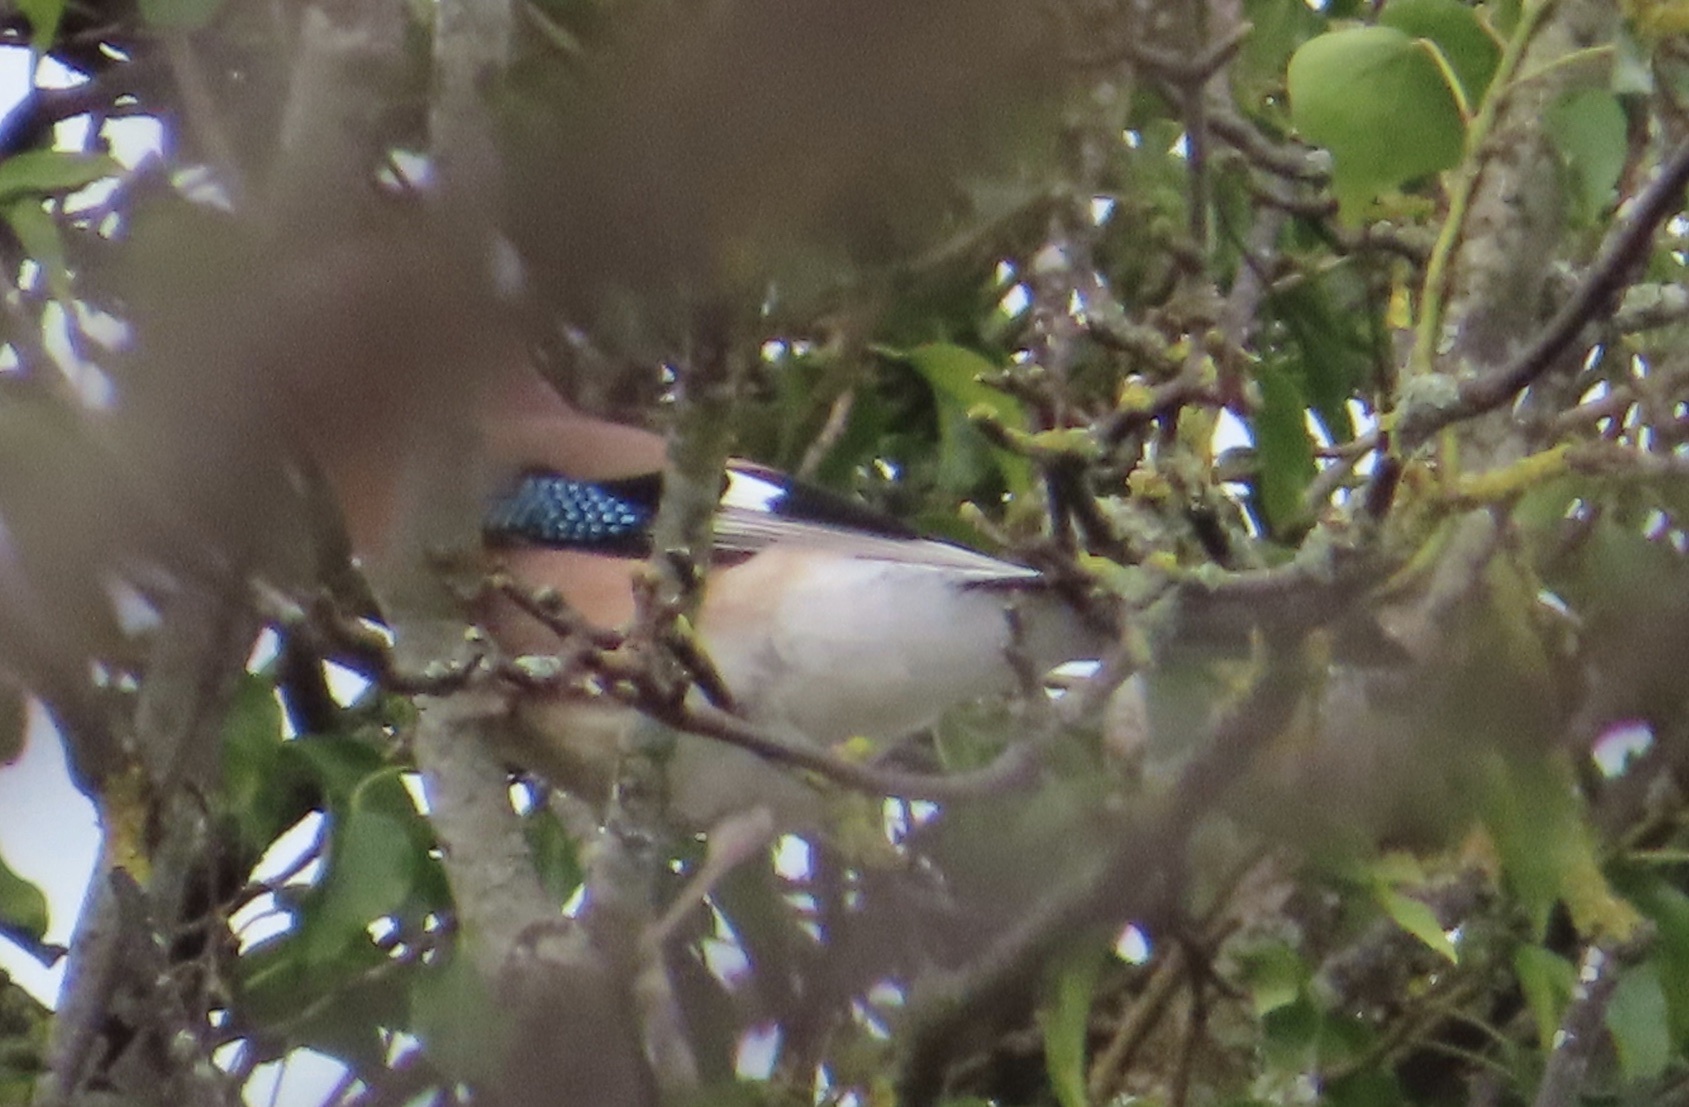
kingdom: Animalia
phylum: Chordata
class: Aves
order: Passeriformes
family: Corvidae
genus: Garrulus
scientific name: Garrulus glandarius
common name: Eurasian jay
